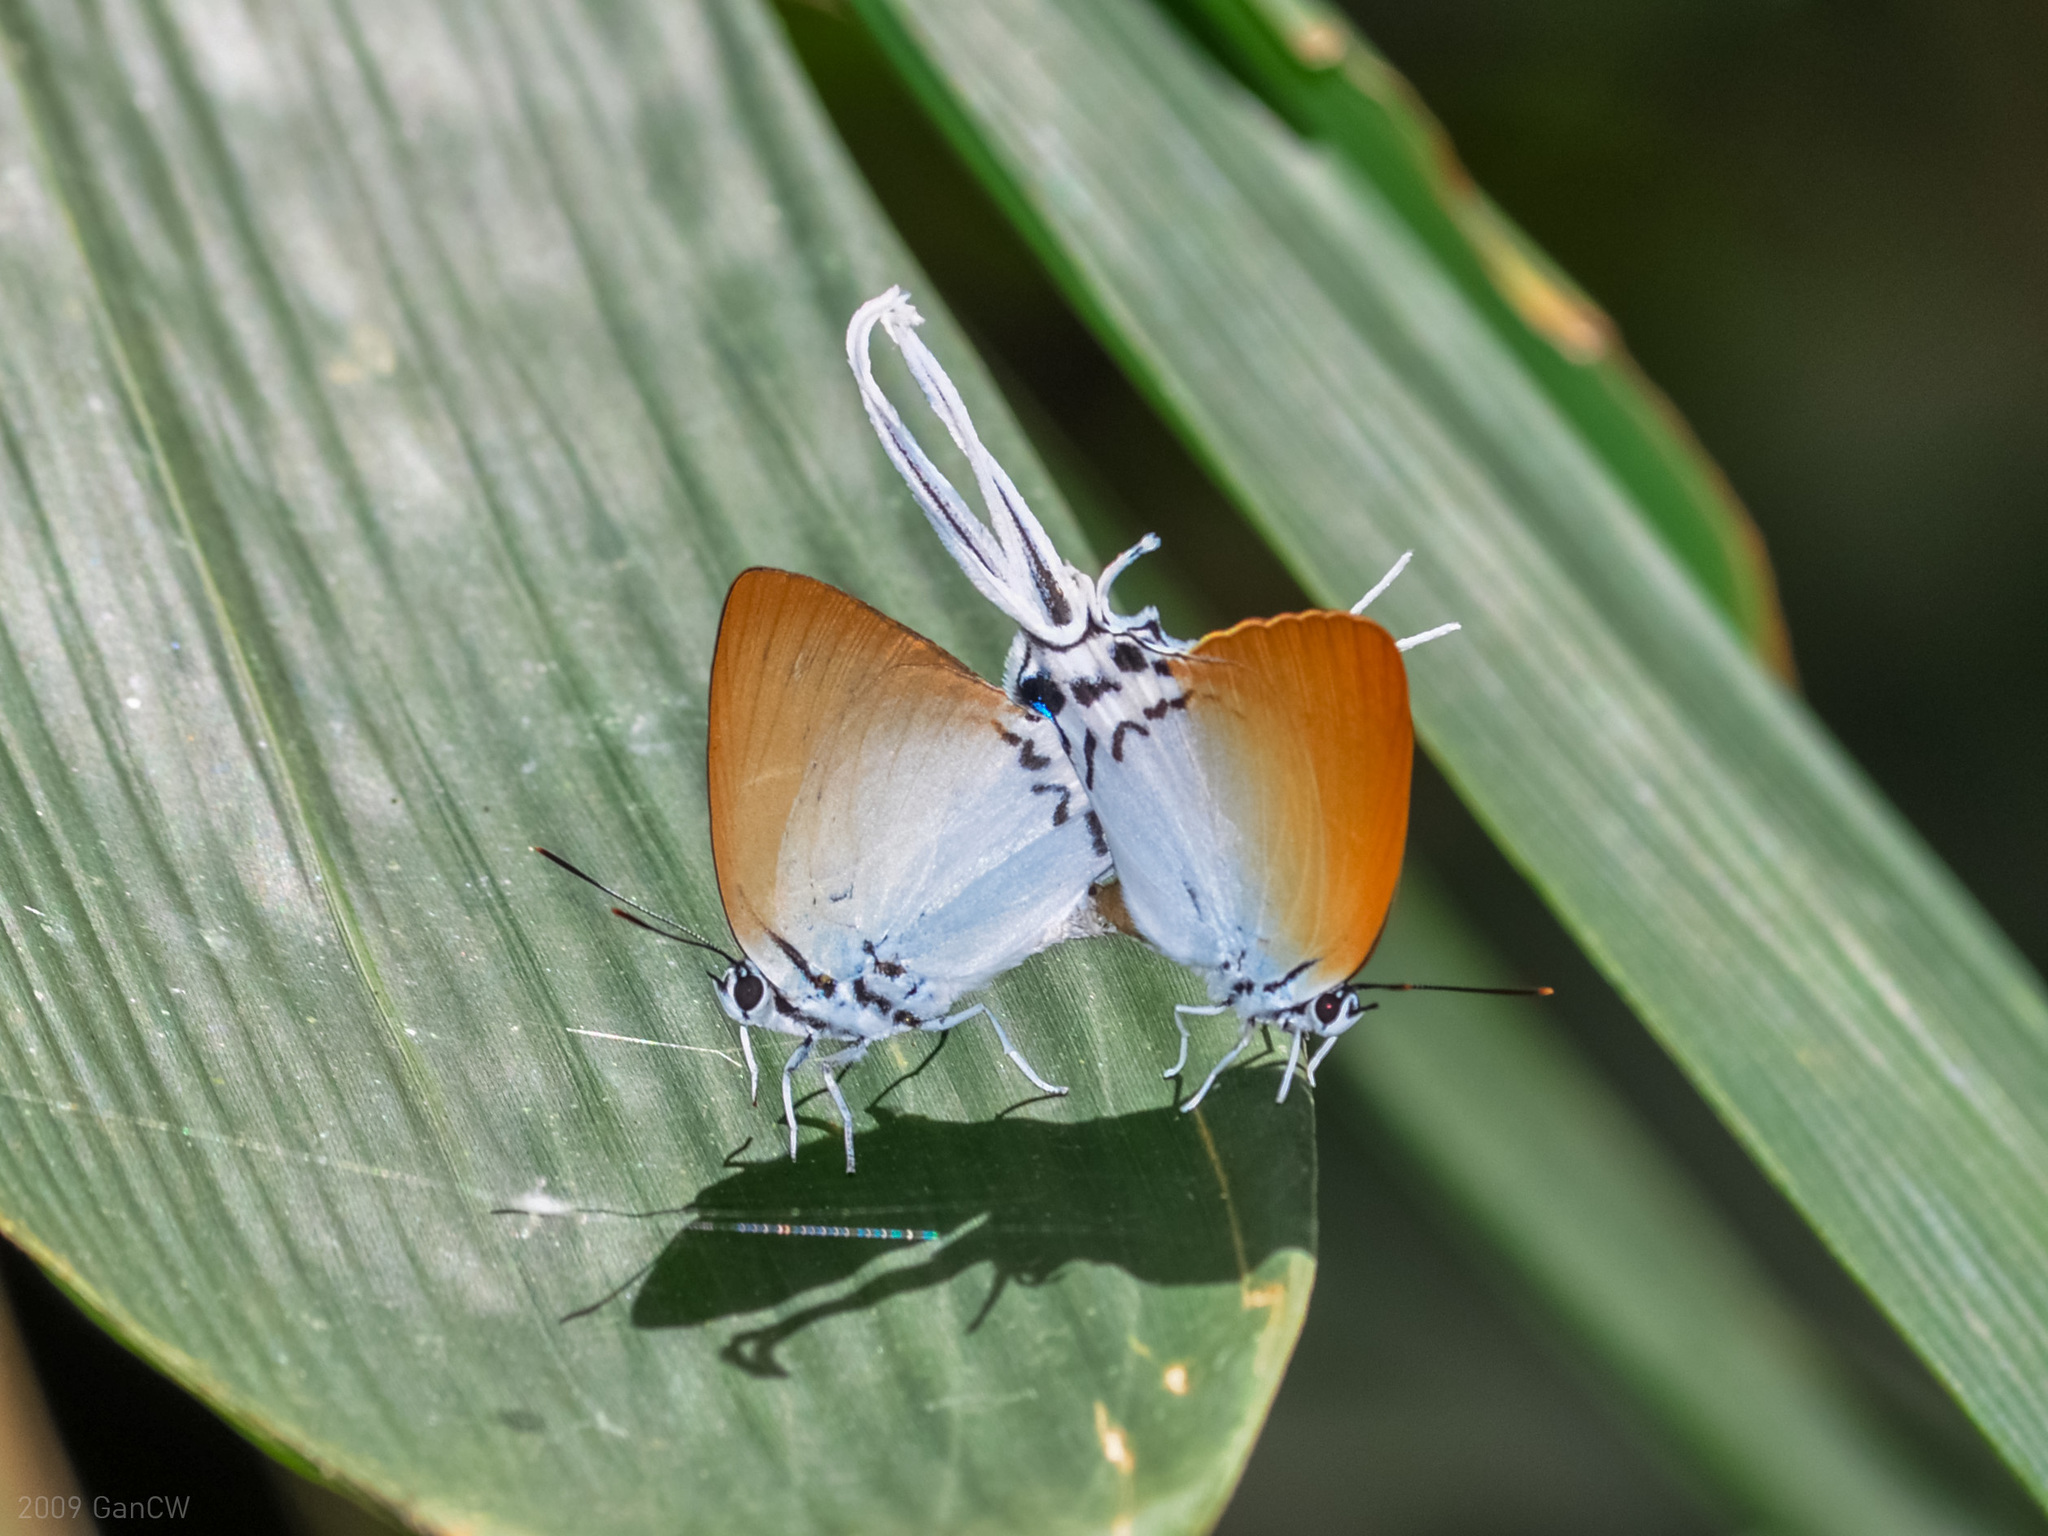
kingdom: Animalia
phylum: Arthropoda
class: Insecta
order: Lepidoptera
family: Lycaenidae
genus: Jacoona
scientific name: Jacoona anasuja
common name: Great imperial
